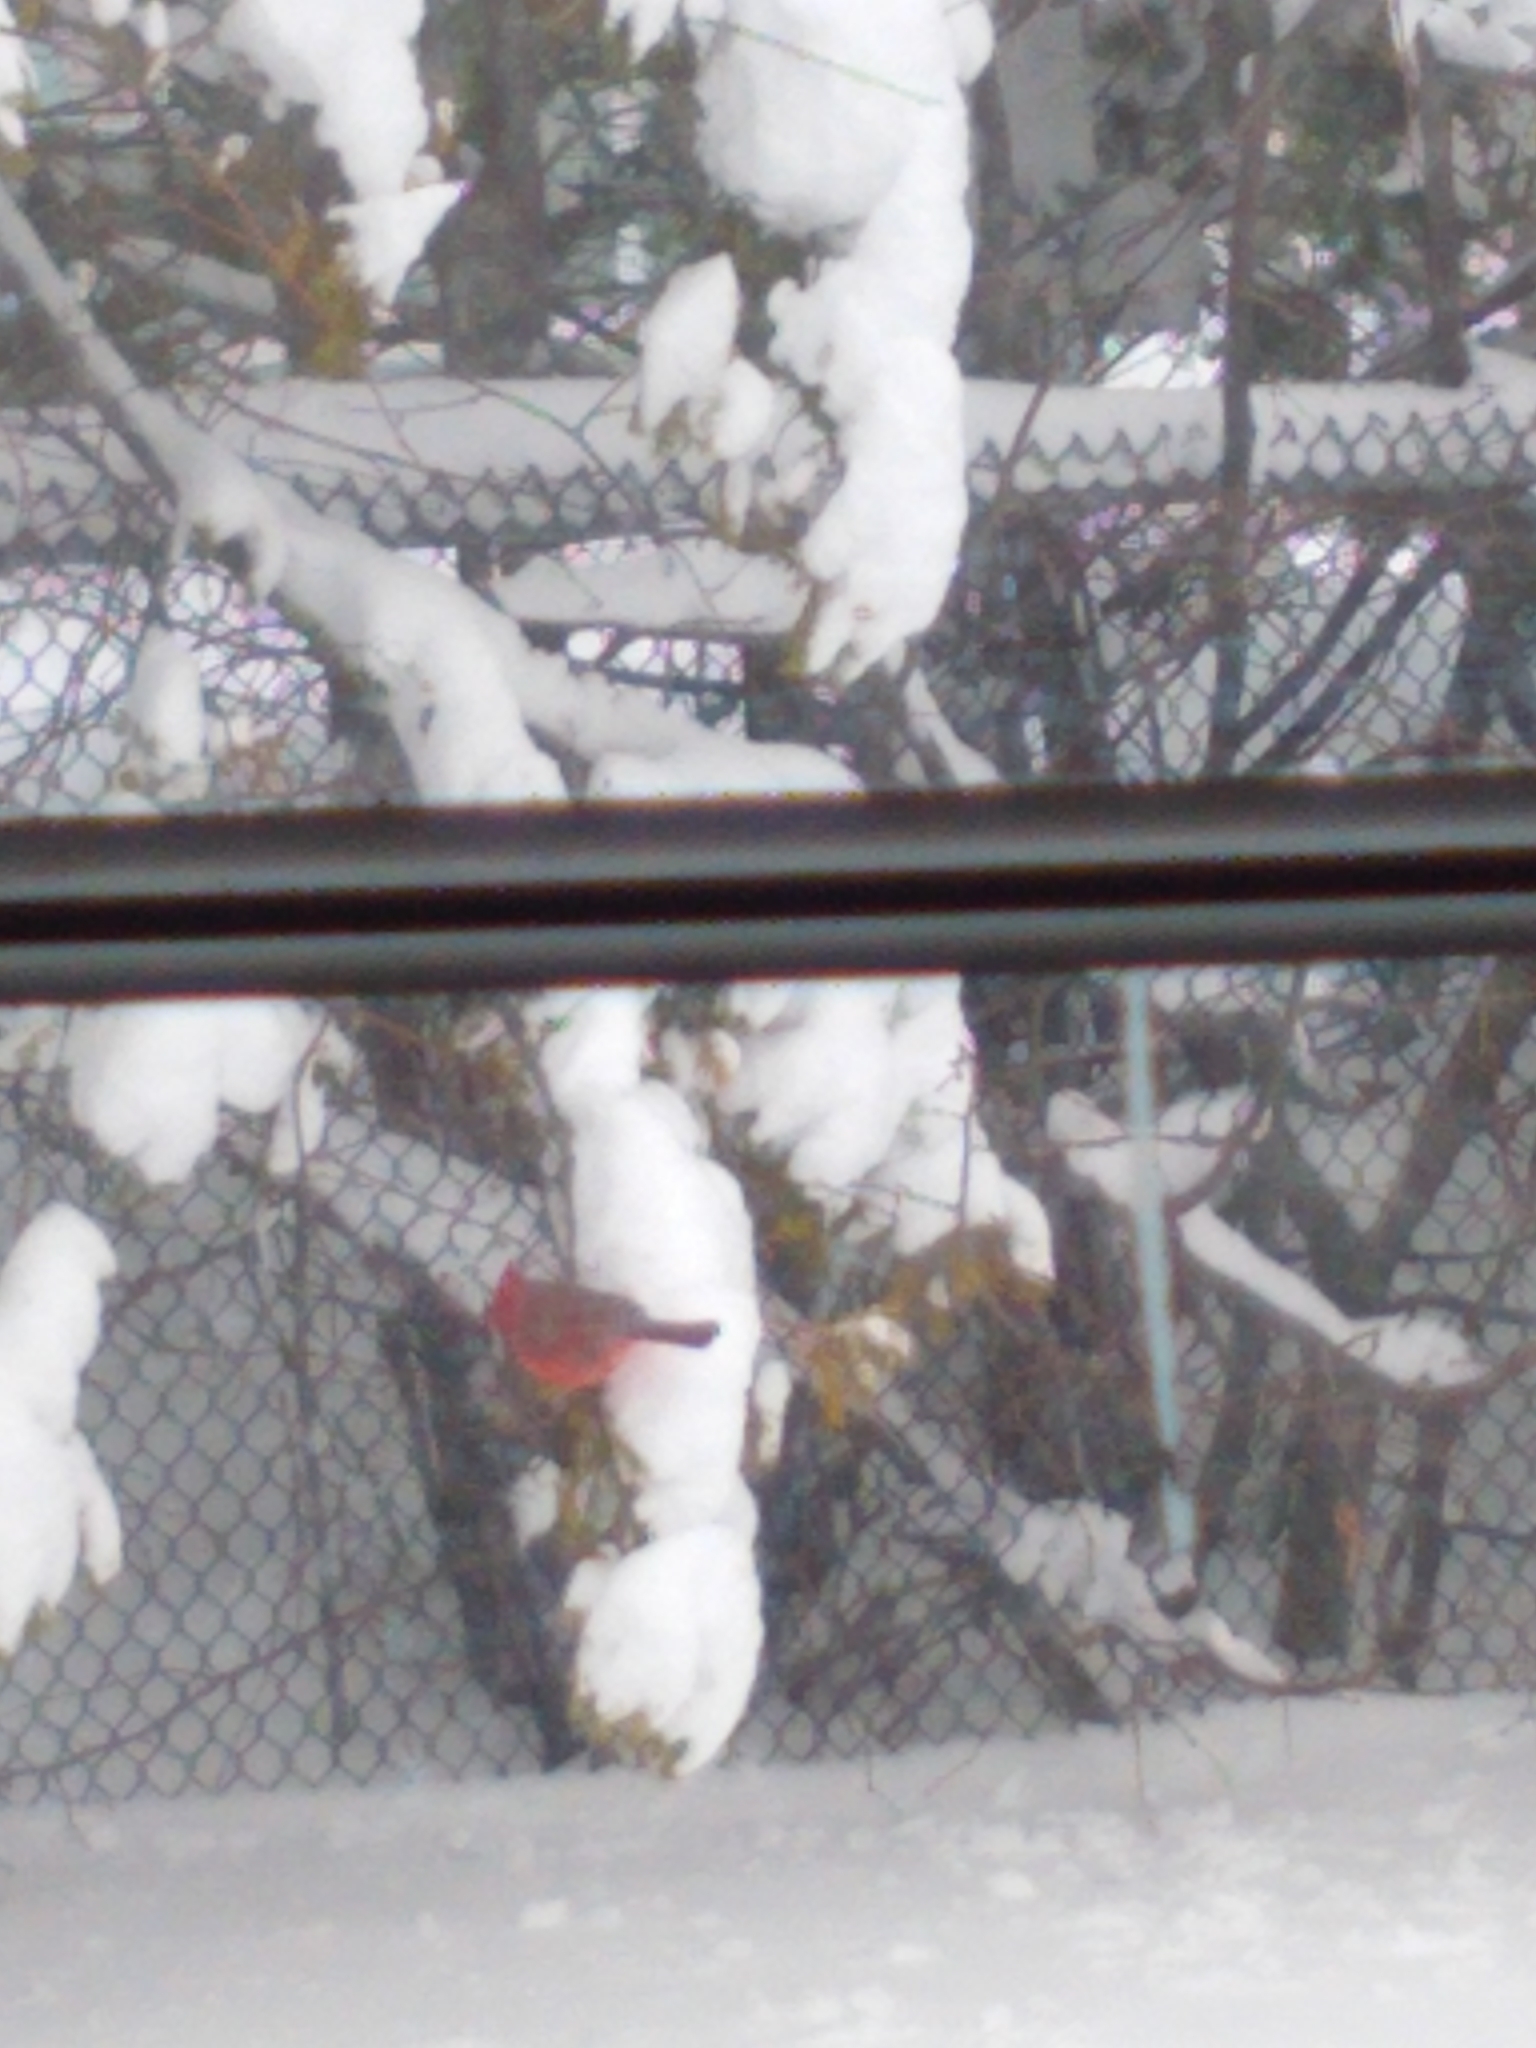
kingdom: Animalia
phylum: Chordata
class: Aves
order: Passeriformes
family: Cardinalidae
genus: Cardinalis
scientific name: Cardinalis cardinalis
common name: Northern cardinal
